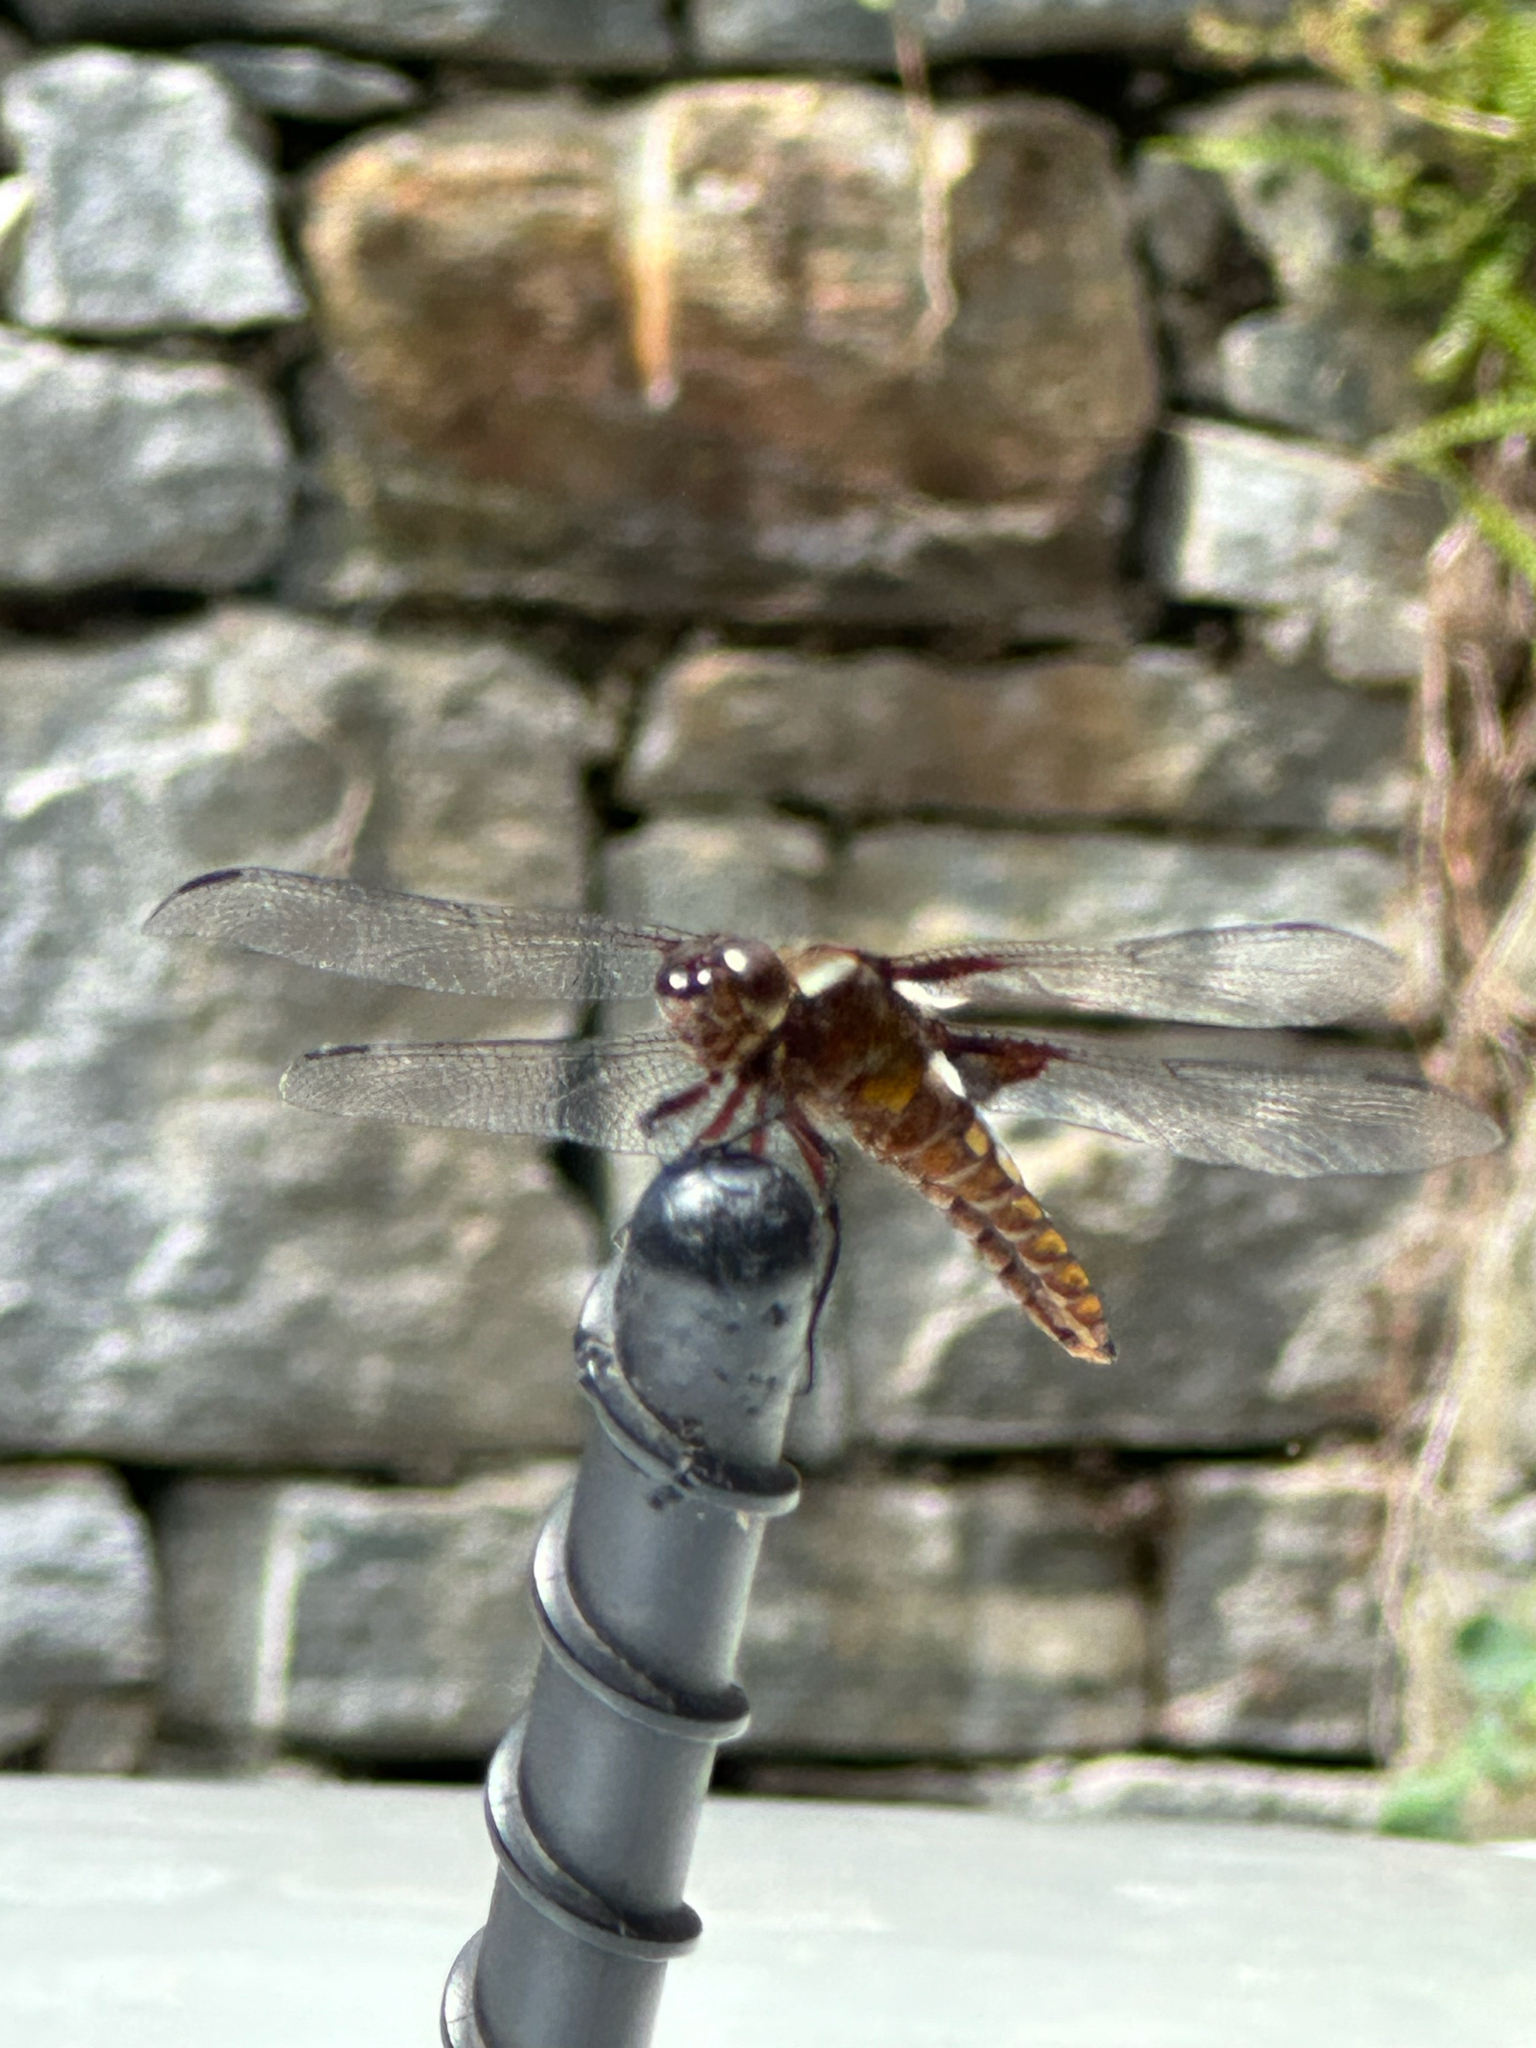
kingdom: Animalia
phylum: Arthropoda
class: Insecta
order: Odonata
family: Libellulidae
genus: Libellula
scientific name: Libellula depressa
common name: Broad-bodied chaser
